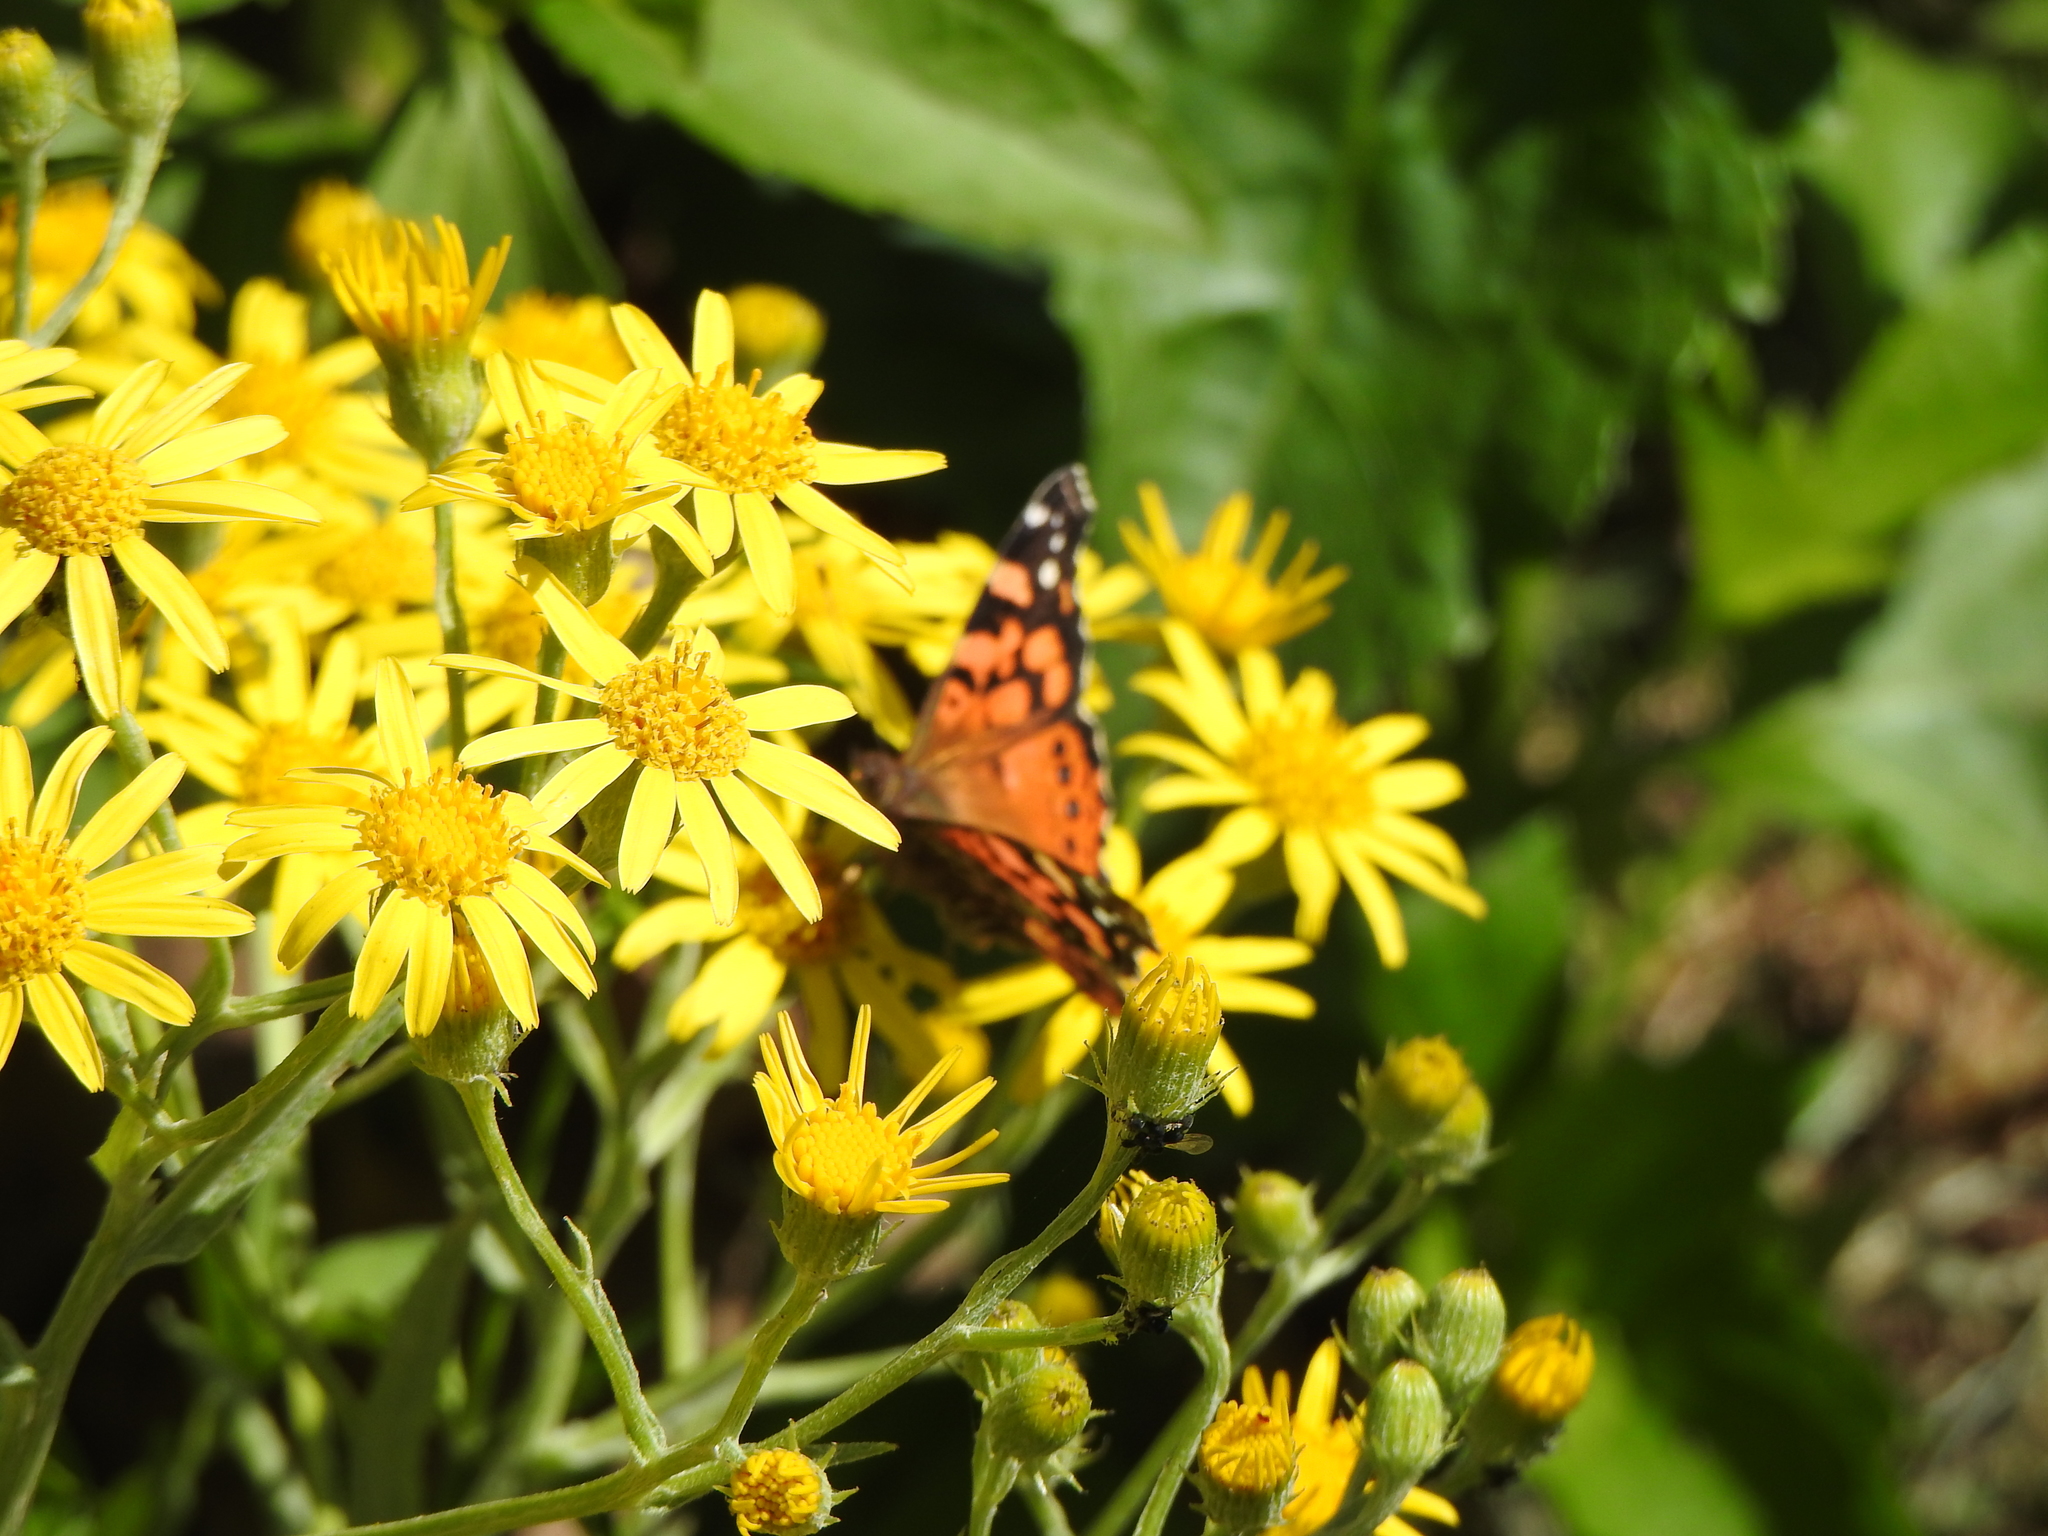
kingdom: Animalia
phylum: Arthropoda
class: Insecta
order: Lepidoptera
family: Nymphalidae
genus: Vanessa
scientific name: Vanessa carye
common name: Subtropical lady
